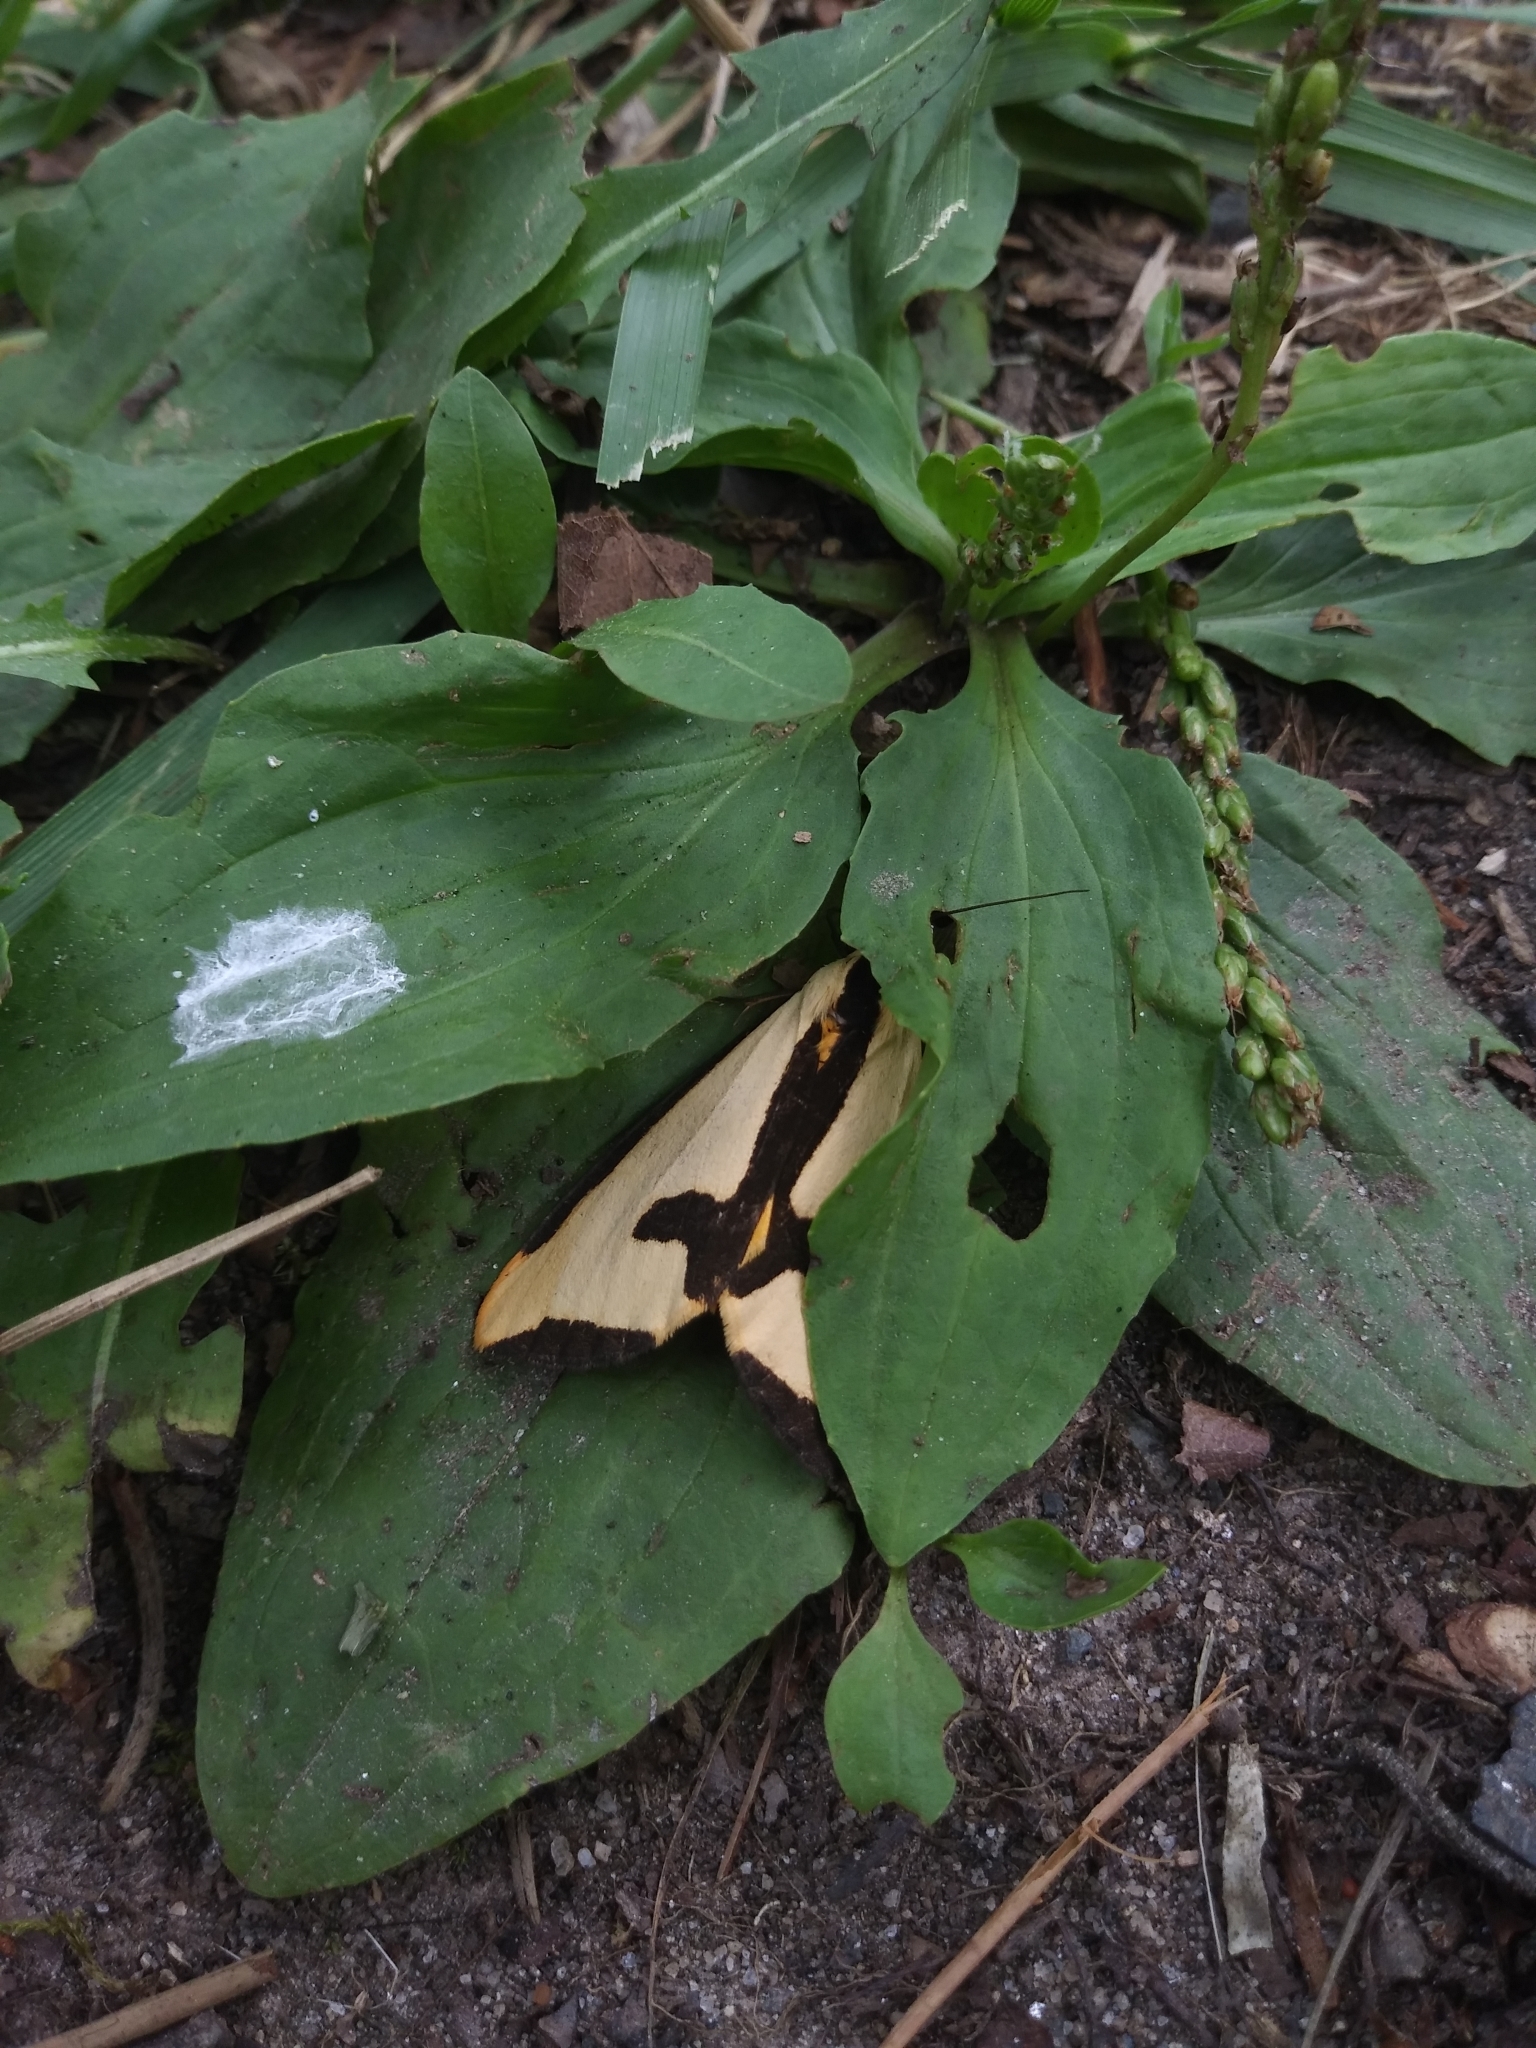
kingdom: Animalia
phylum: Arthropoda
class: Insecta
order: Lepidoptera
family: Erebidae
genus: Haploa
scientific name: Haploa clymene
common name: Clymene moth
